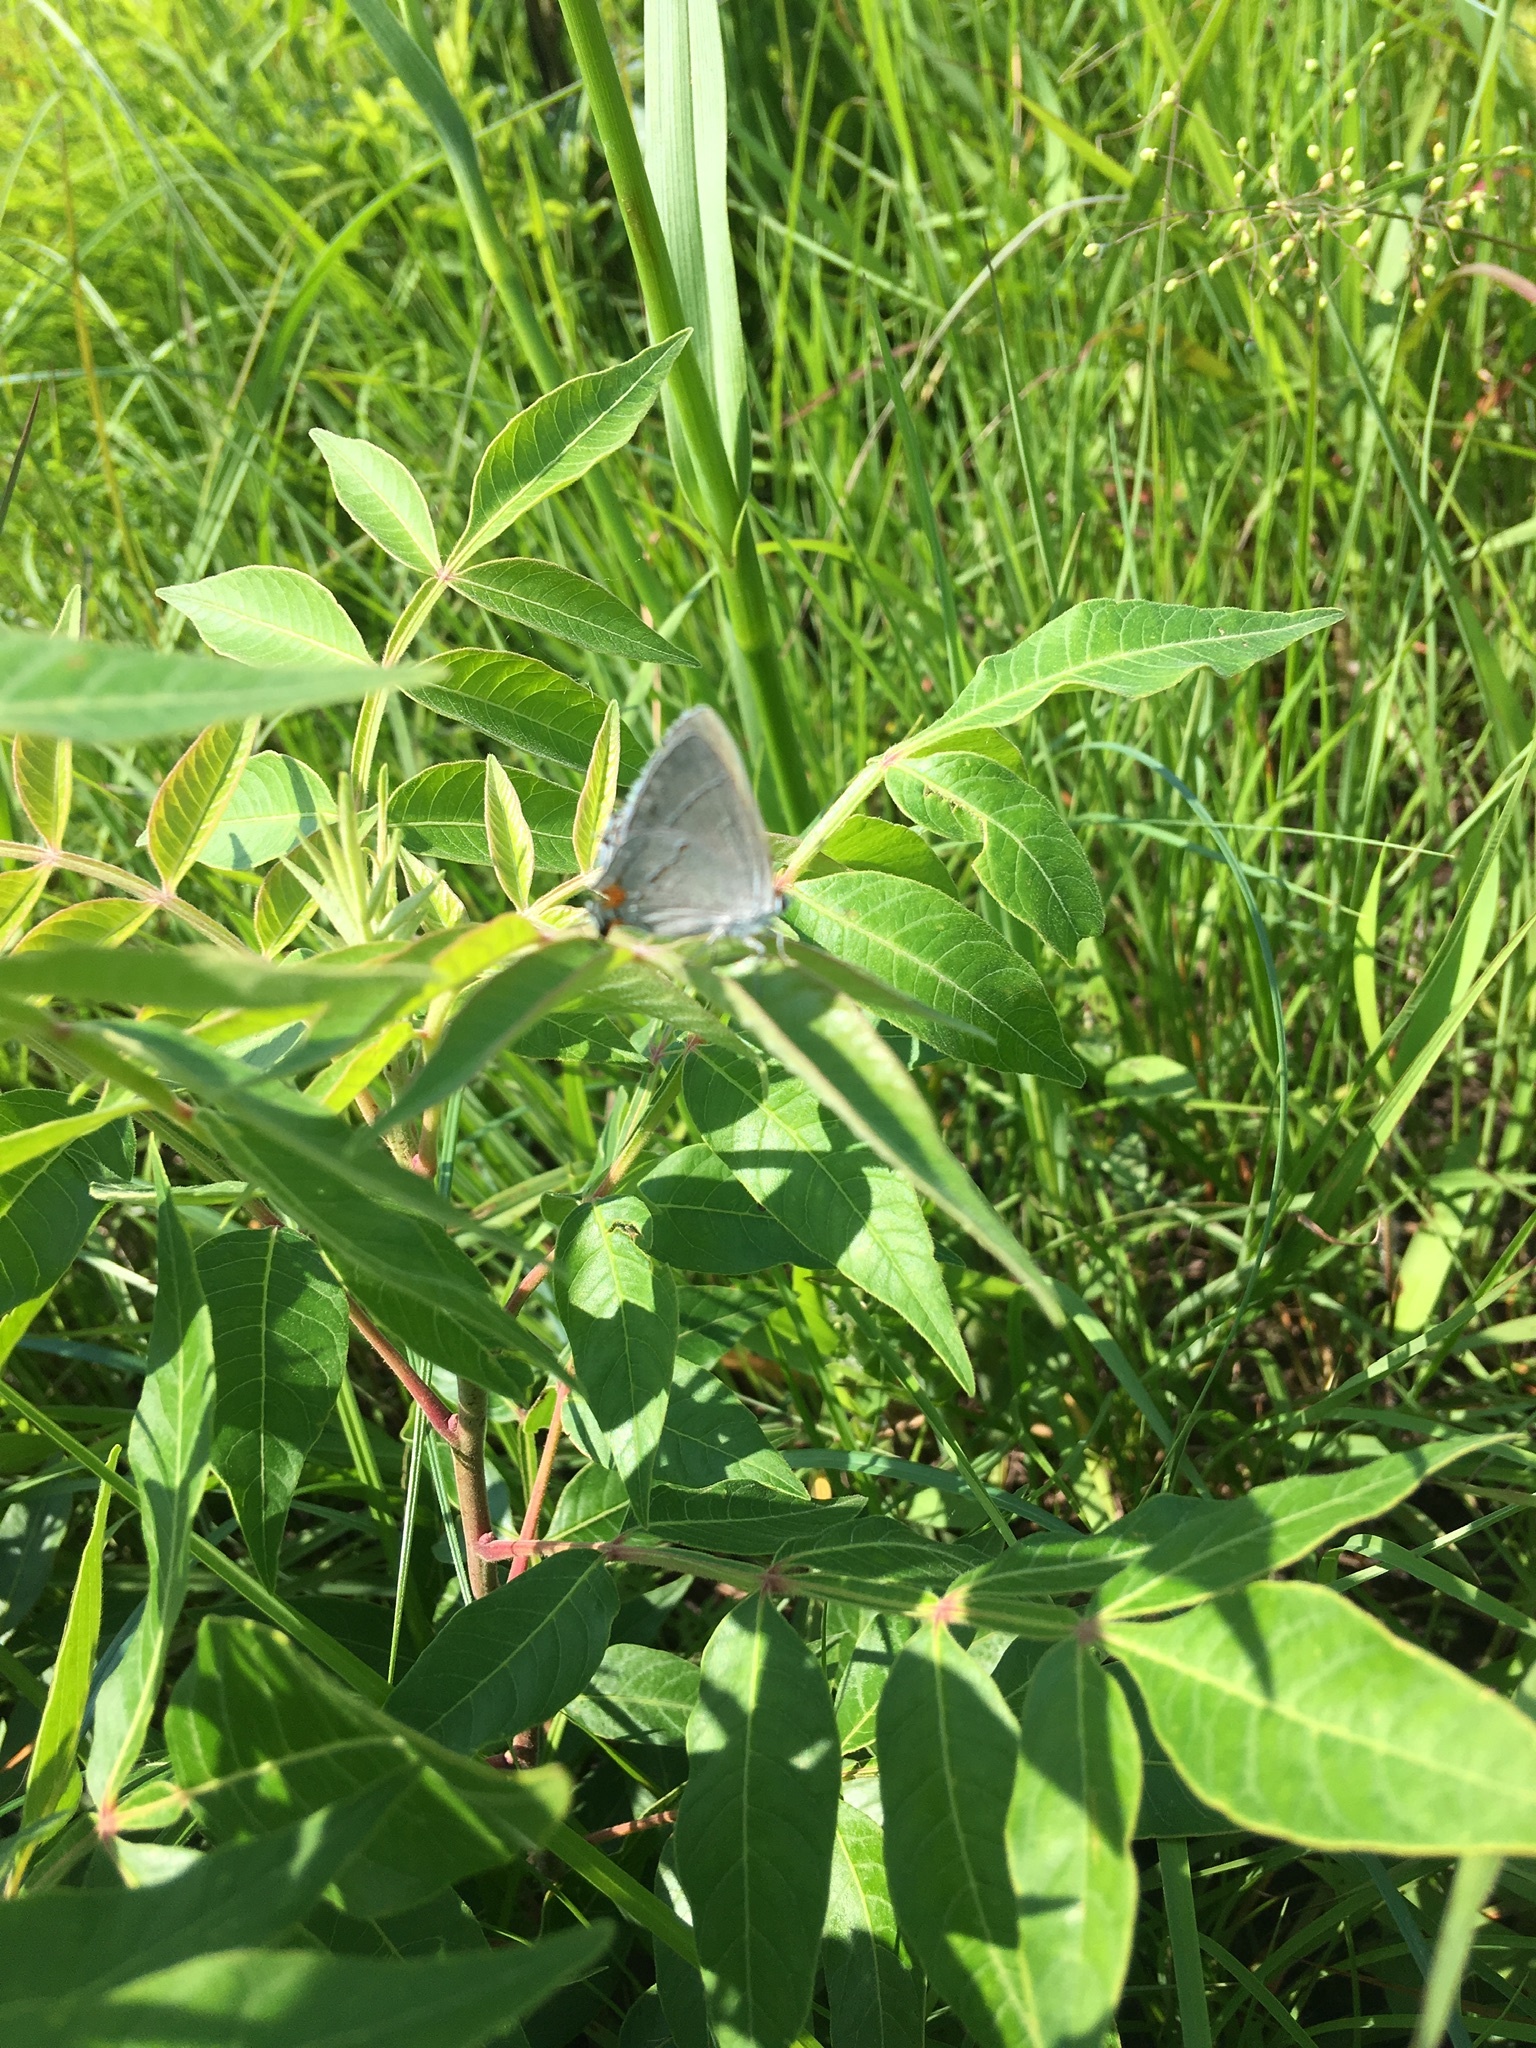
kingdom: Animalia
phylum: Arthropoda
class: Insecta
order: Lepidoptera
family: Lycaenidae
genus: Strymon
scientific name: Strymon melinus
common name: Gray hairstreak
